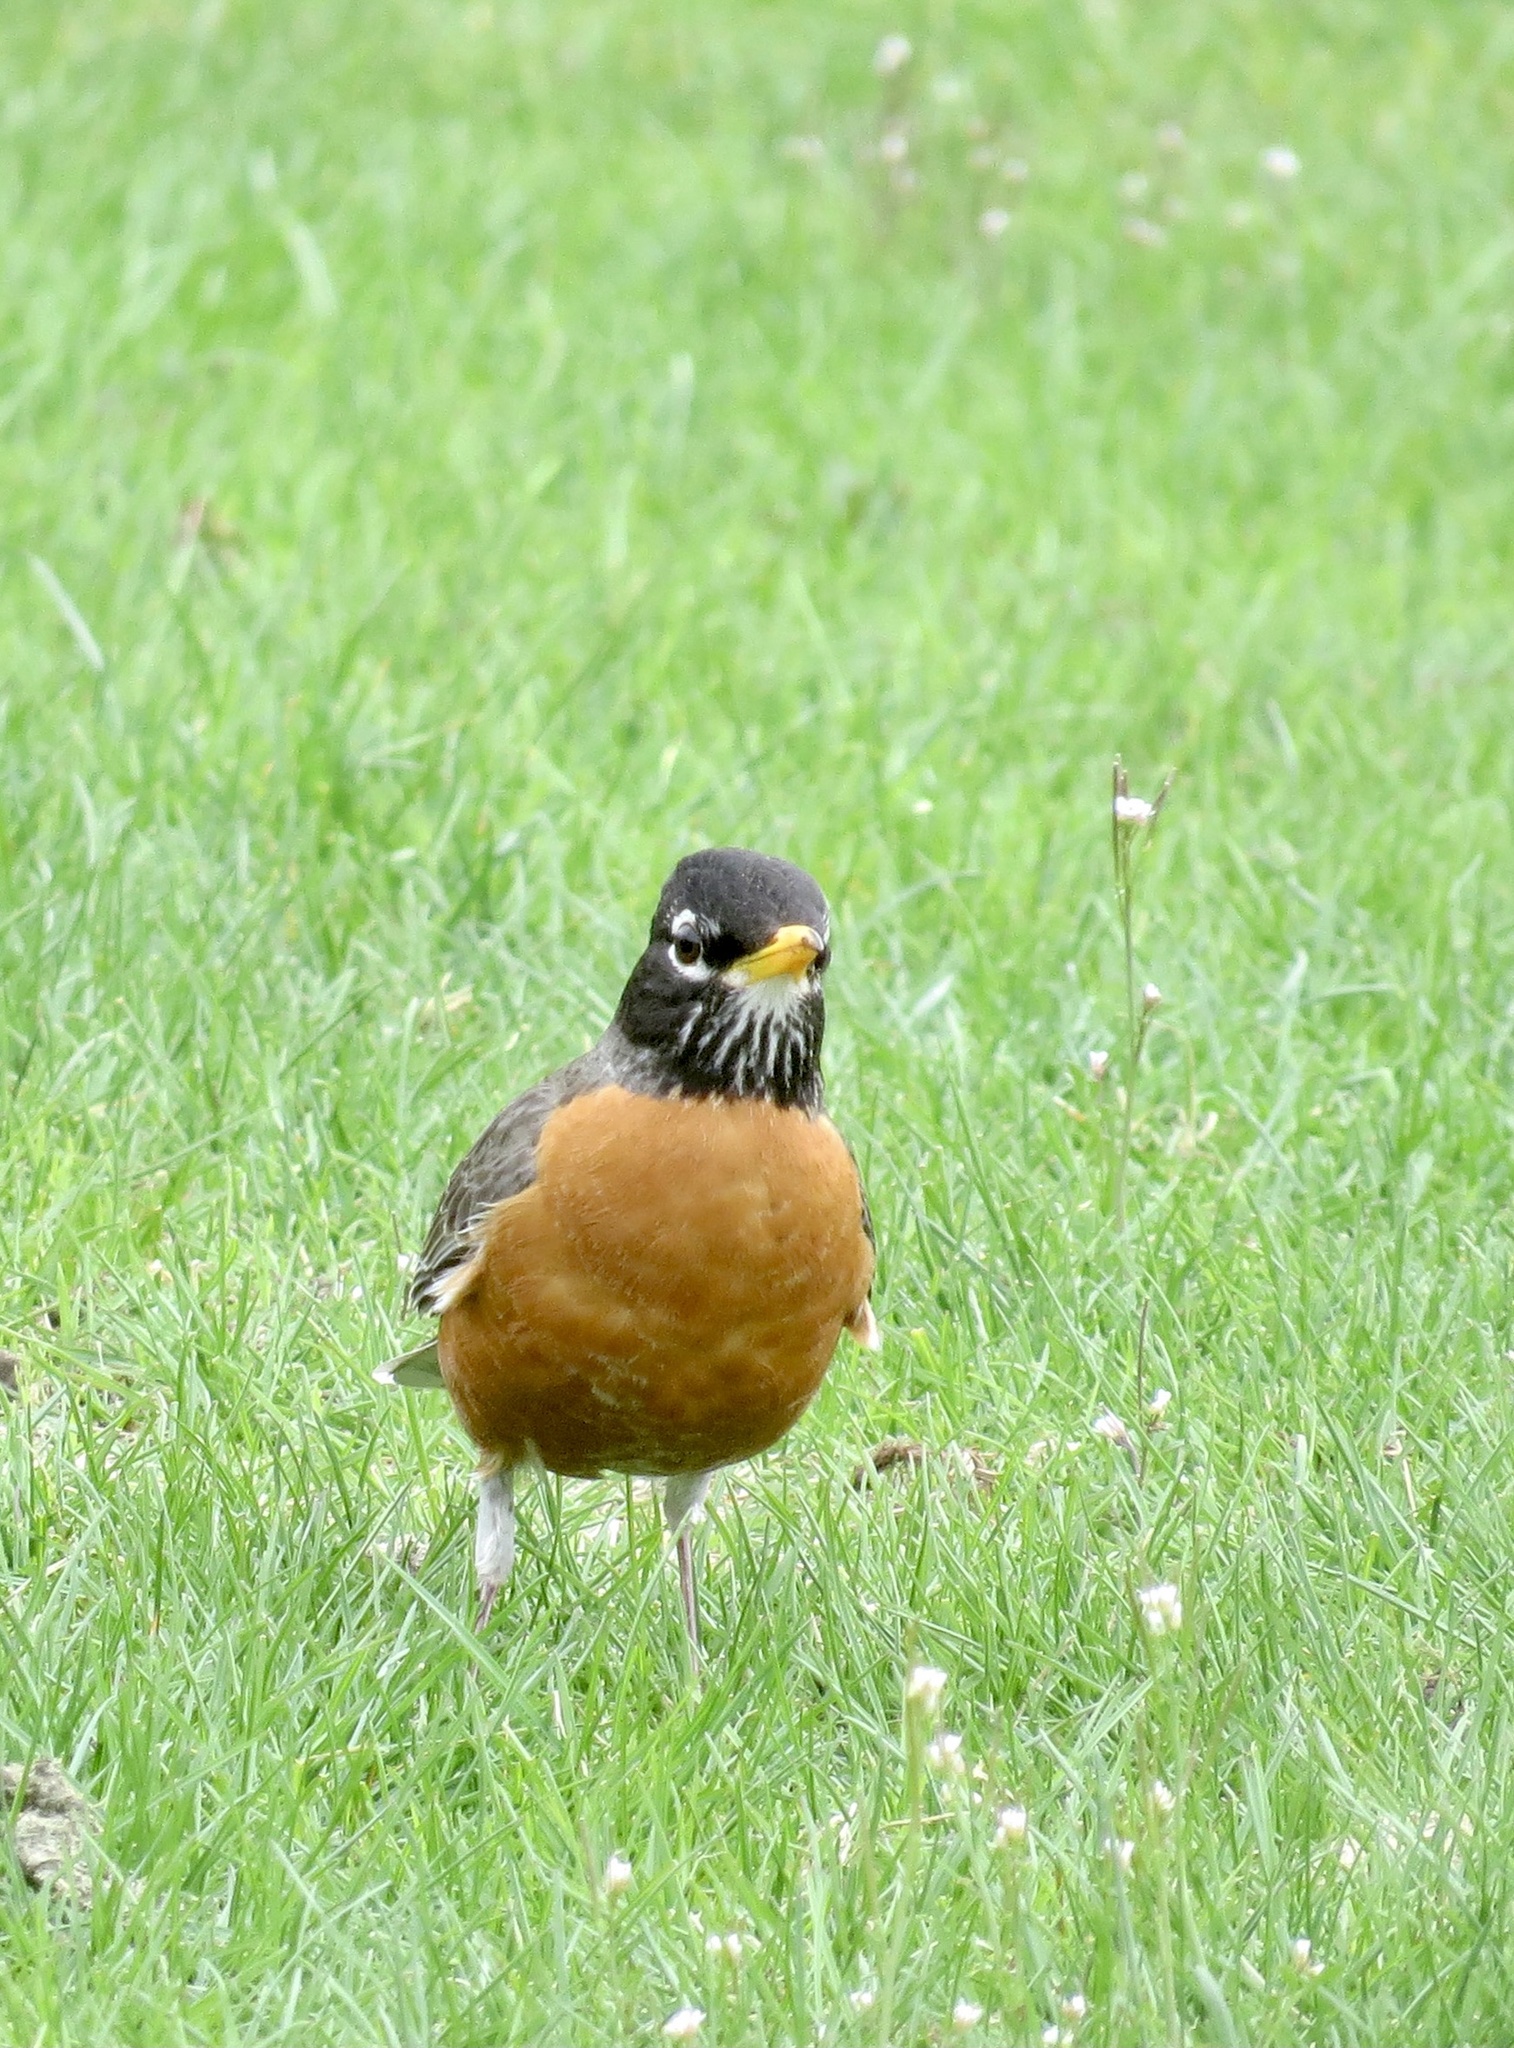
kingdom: Animalia
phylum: Chordata
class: Aves
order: Passeriformes
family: Turdidae
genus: Turdus
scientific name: Turdus migratorius
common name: American robin
